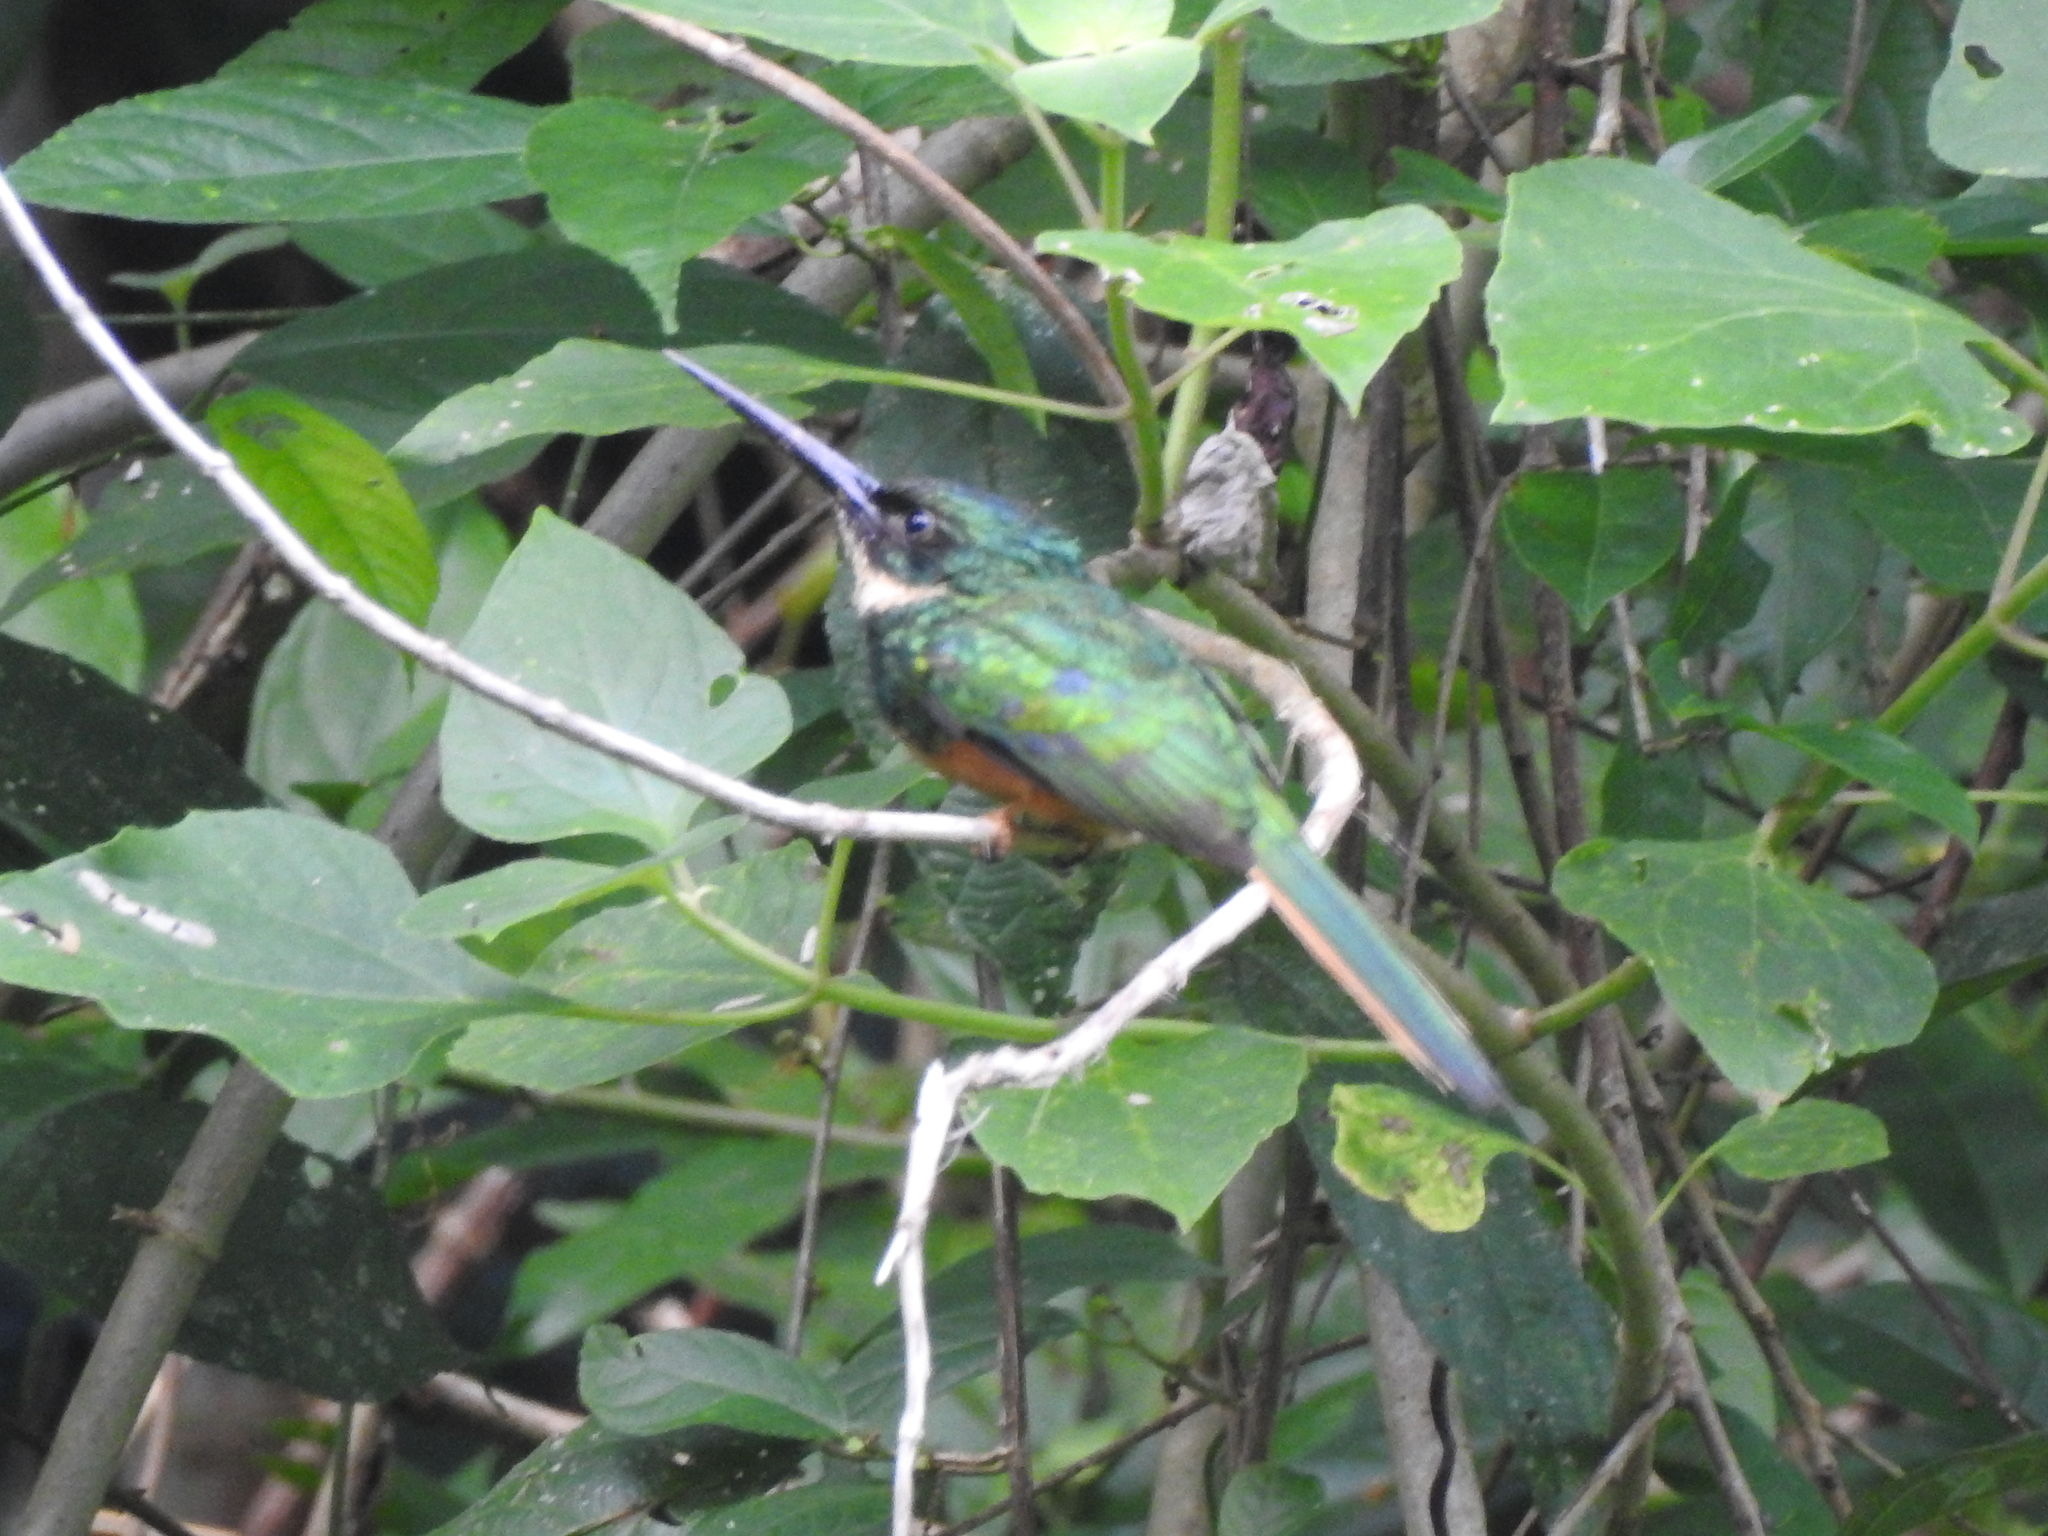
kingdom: Animalia
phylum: Chordata
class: Aves
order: Piciformes
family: Galbulidae
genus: Galbula
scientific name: Galbula ruficauda
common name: Rufous-tailed jacamar
